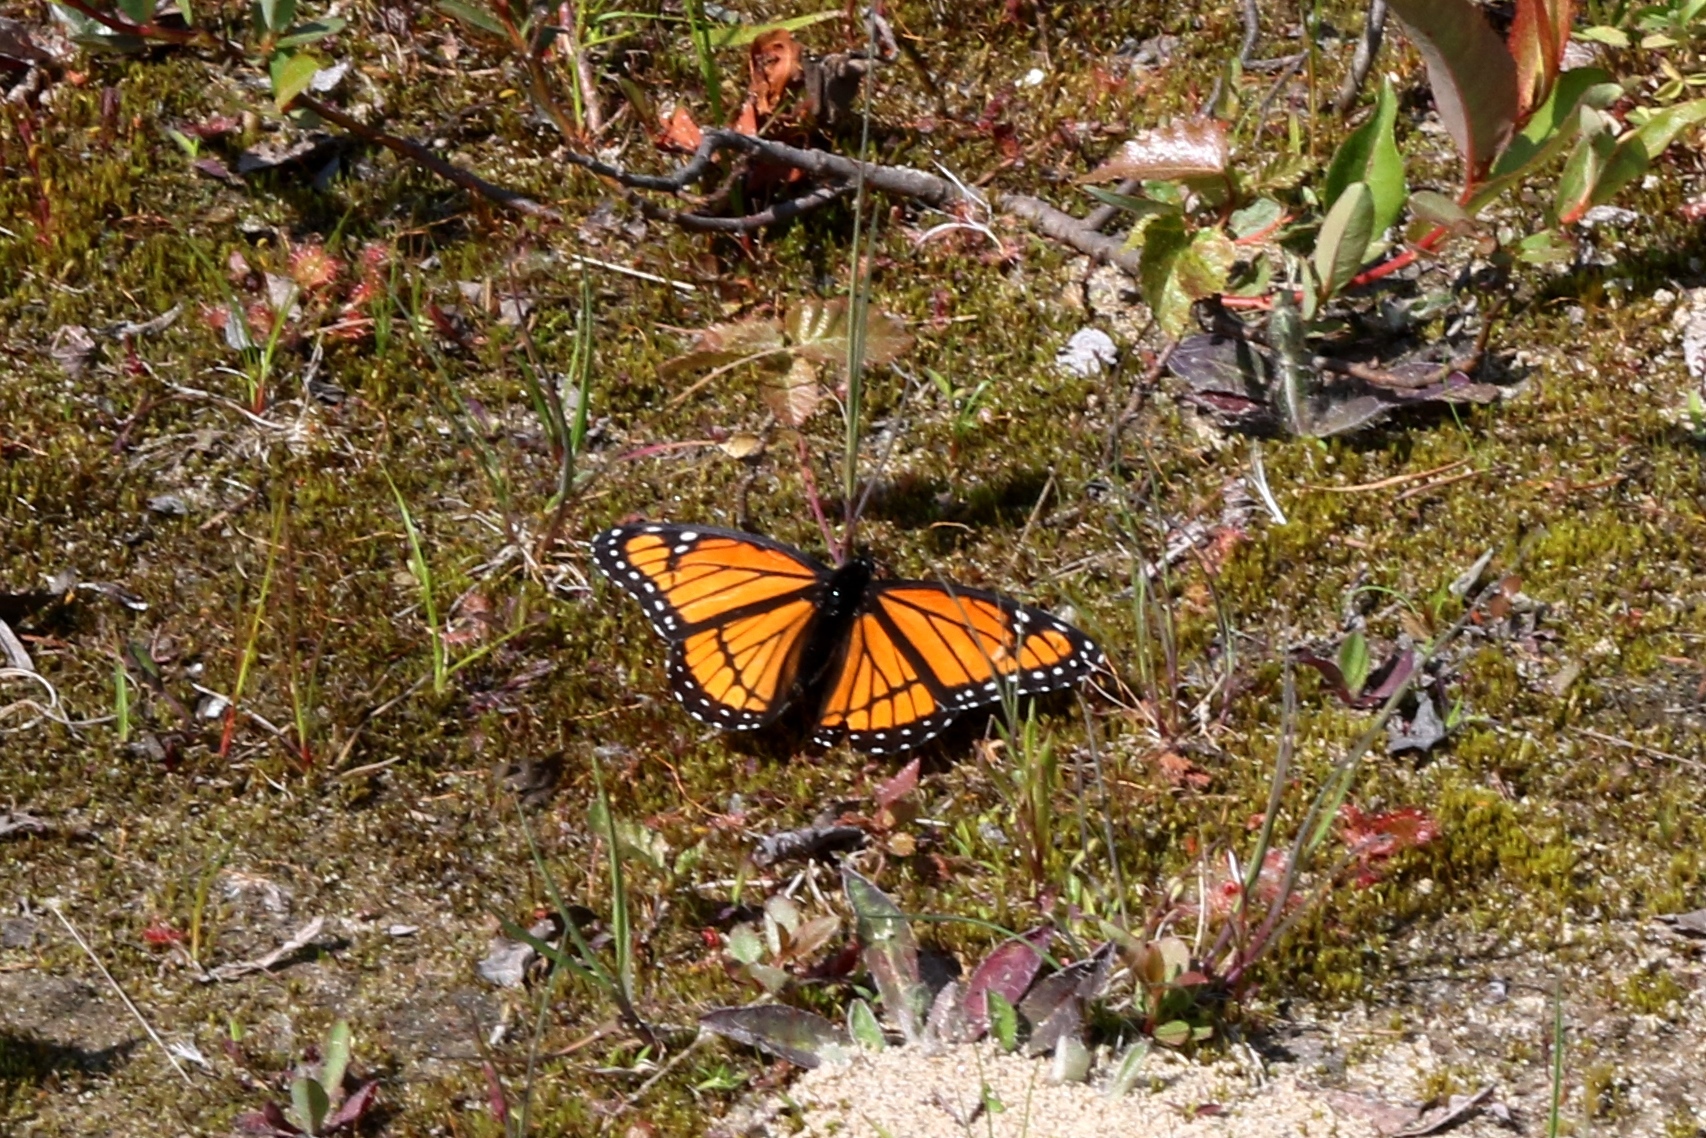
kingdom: Animalia
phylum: Arthropoda
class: Insecta
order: Lepidoptera
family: Nymphalidae
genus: Limenitis
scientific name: Limenitis archippus
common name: Viceroy
